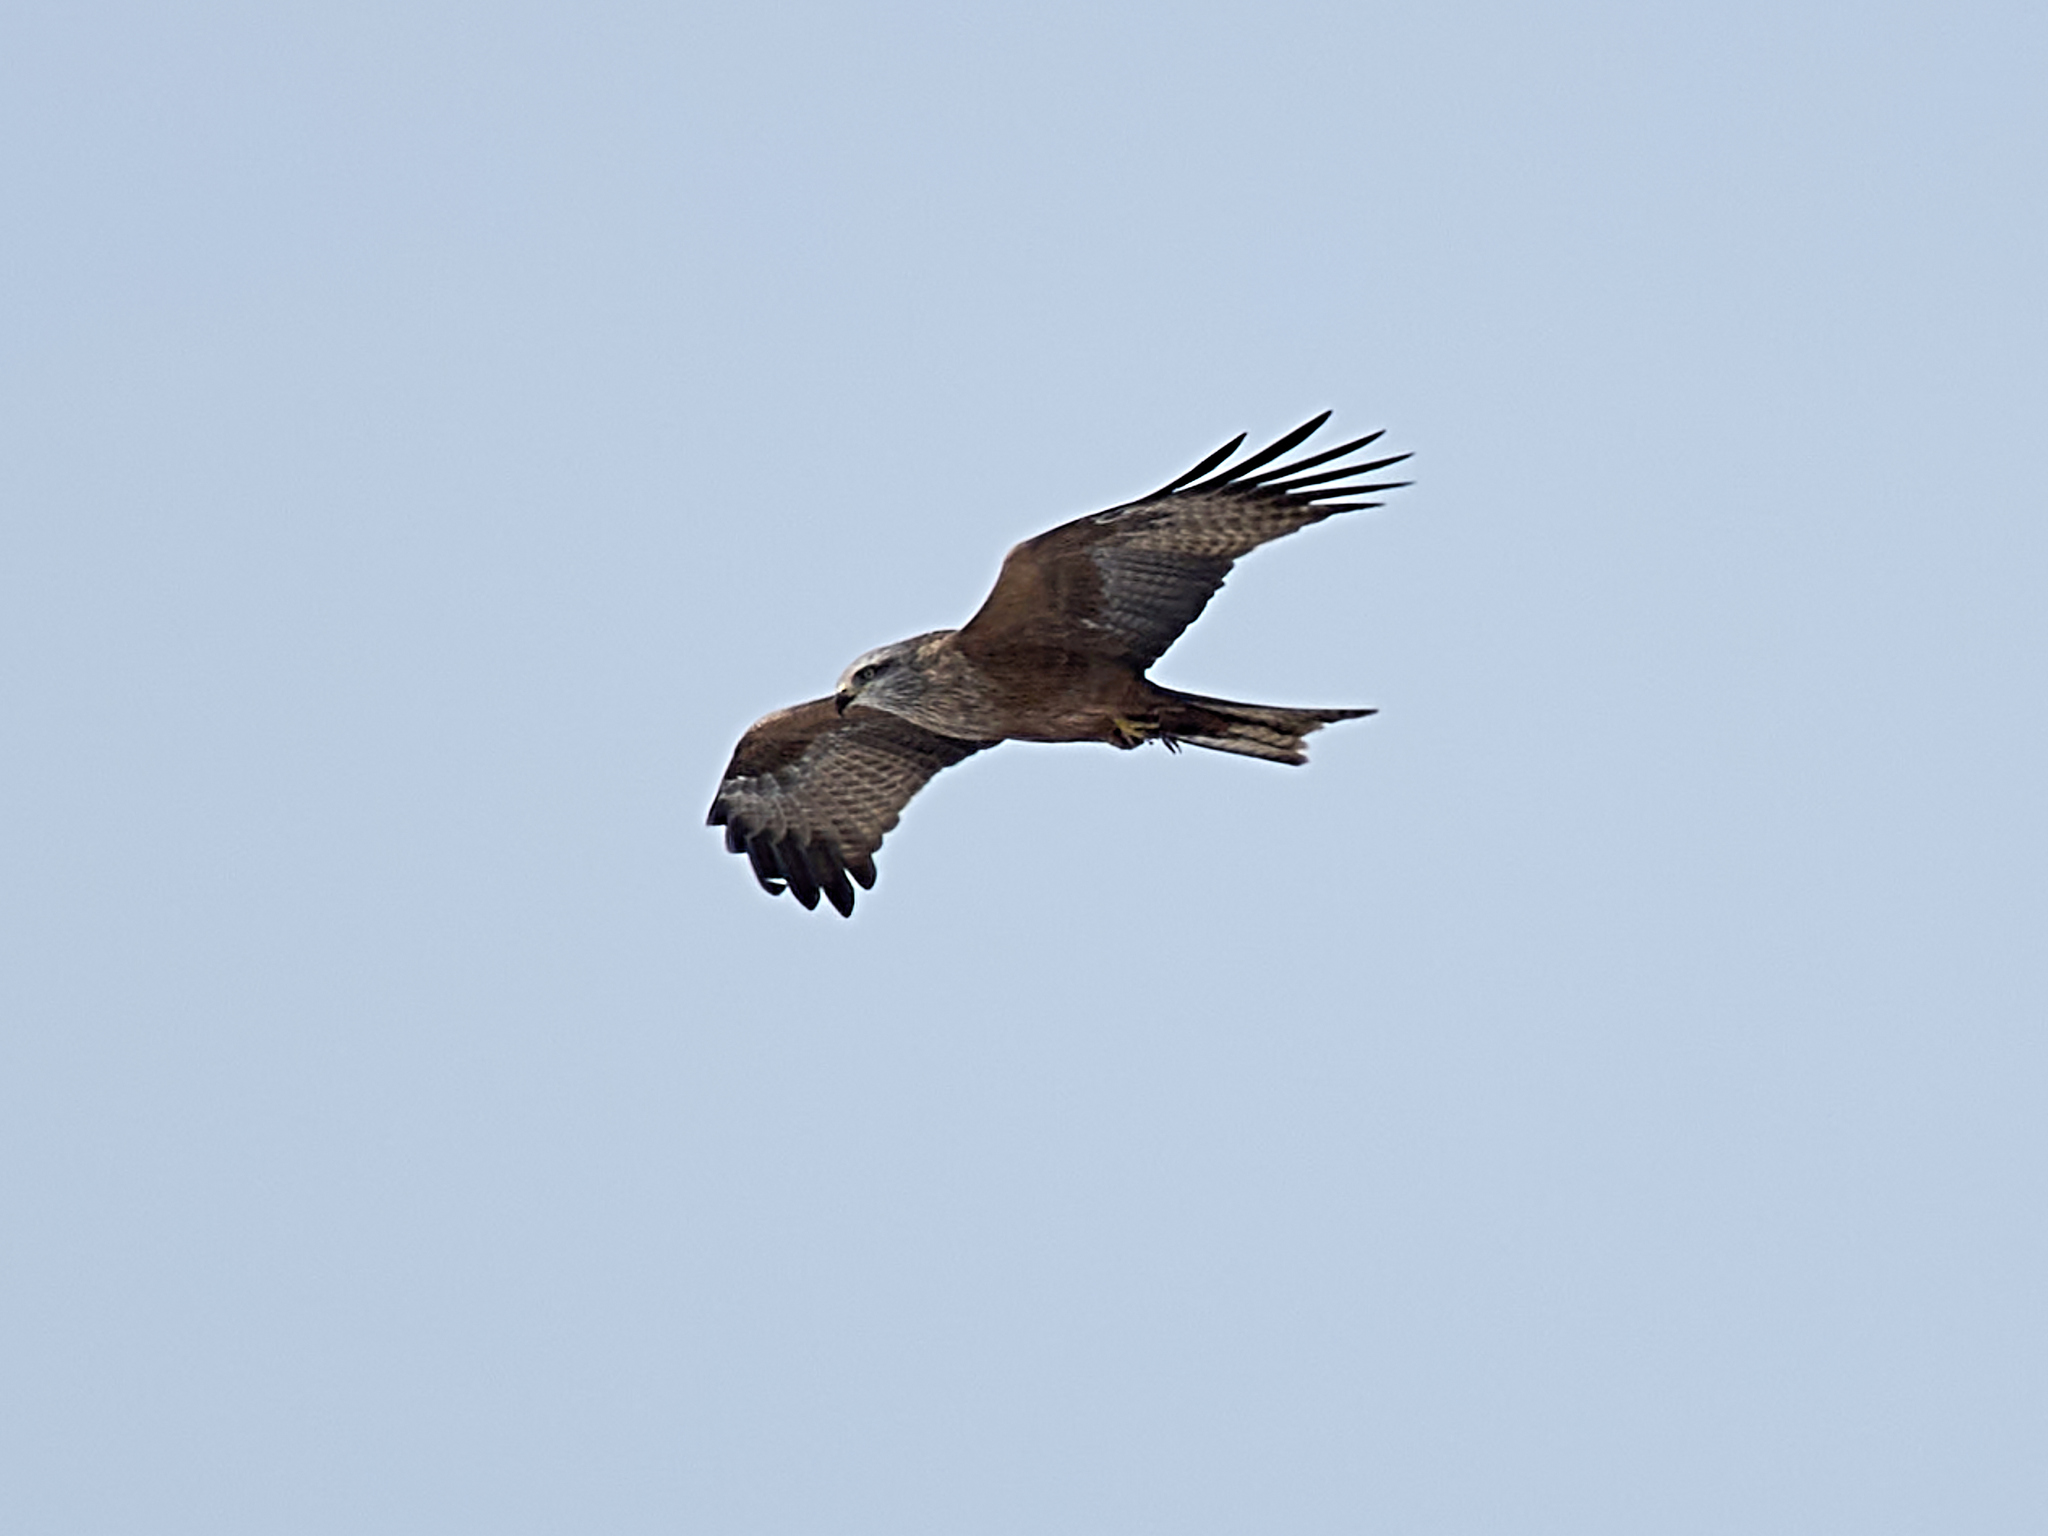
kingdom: Animalia
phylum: Chordata
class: Aves
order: Accipitriformes
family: Accipitridae
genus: Milvus
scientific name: Milvus migrans
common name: Black kite
